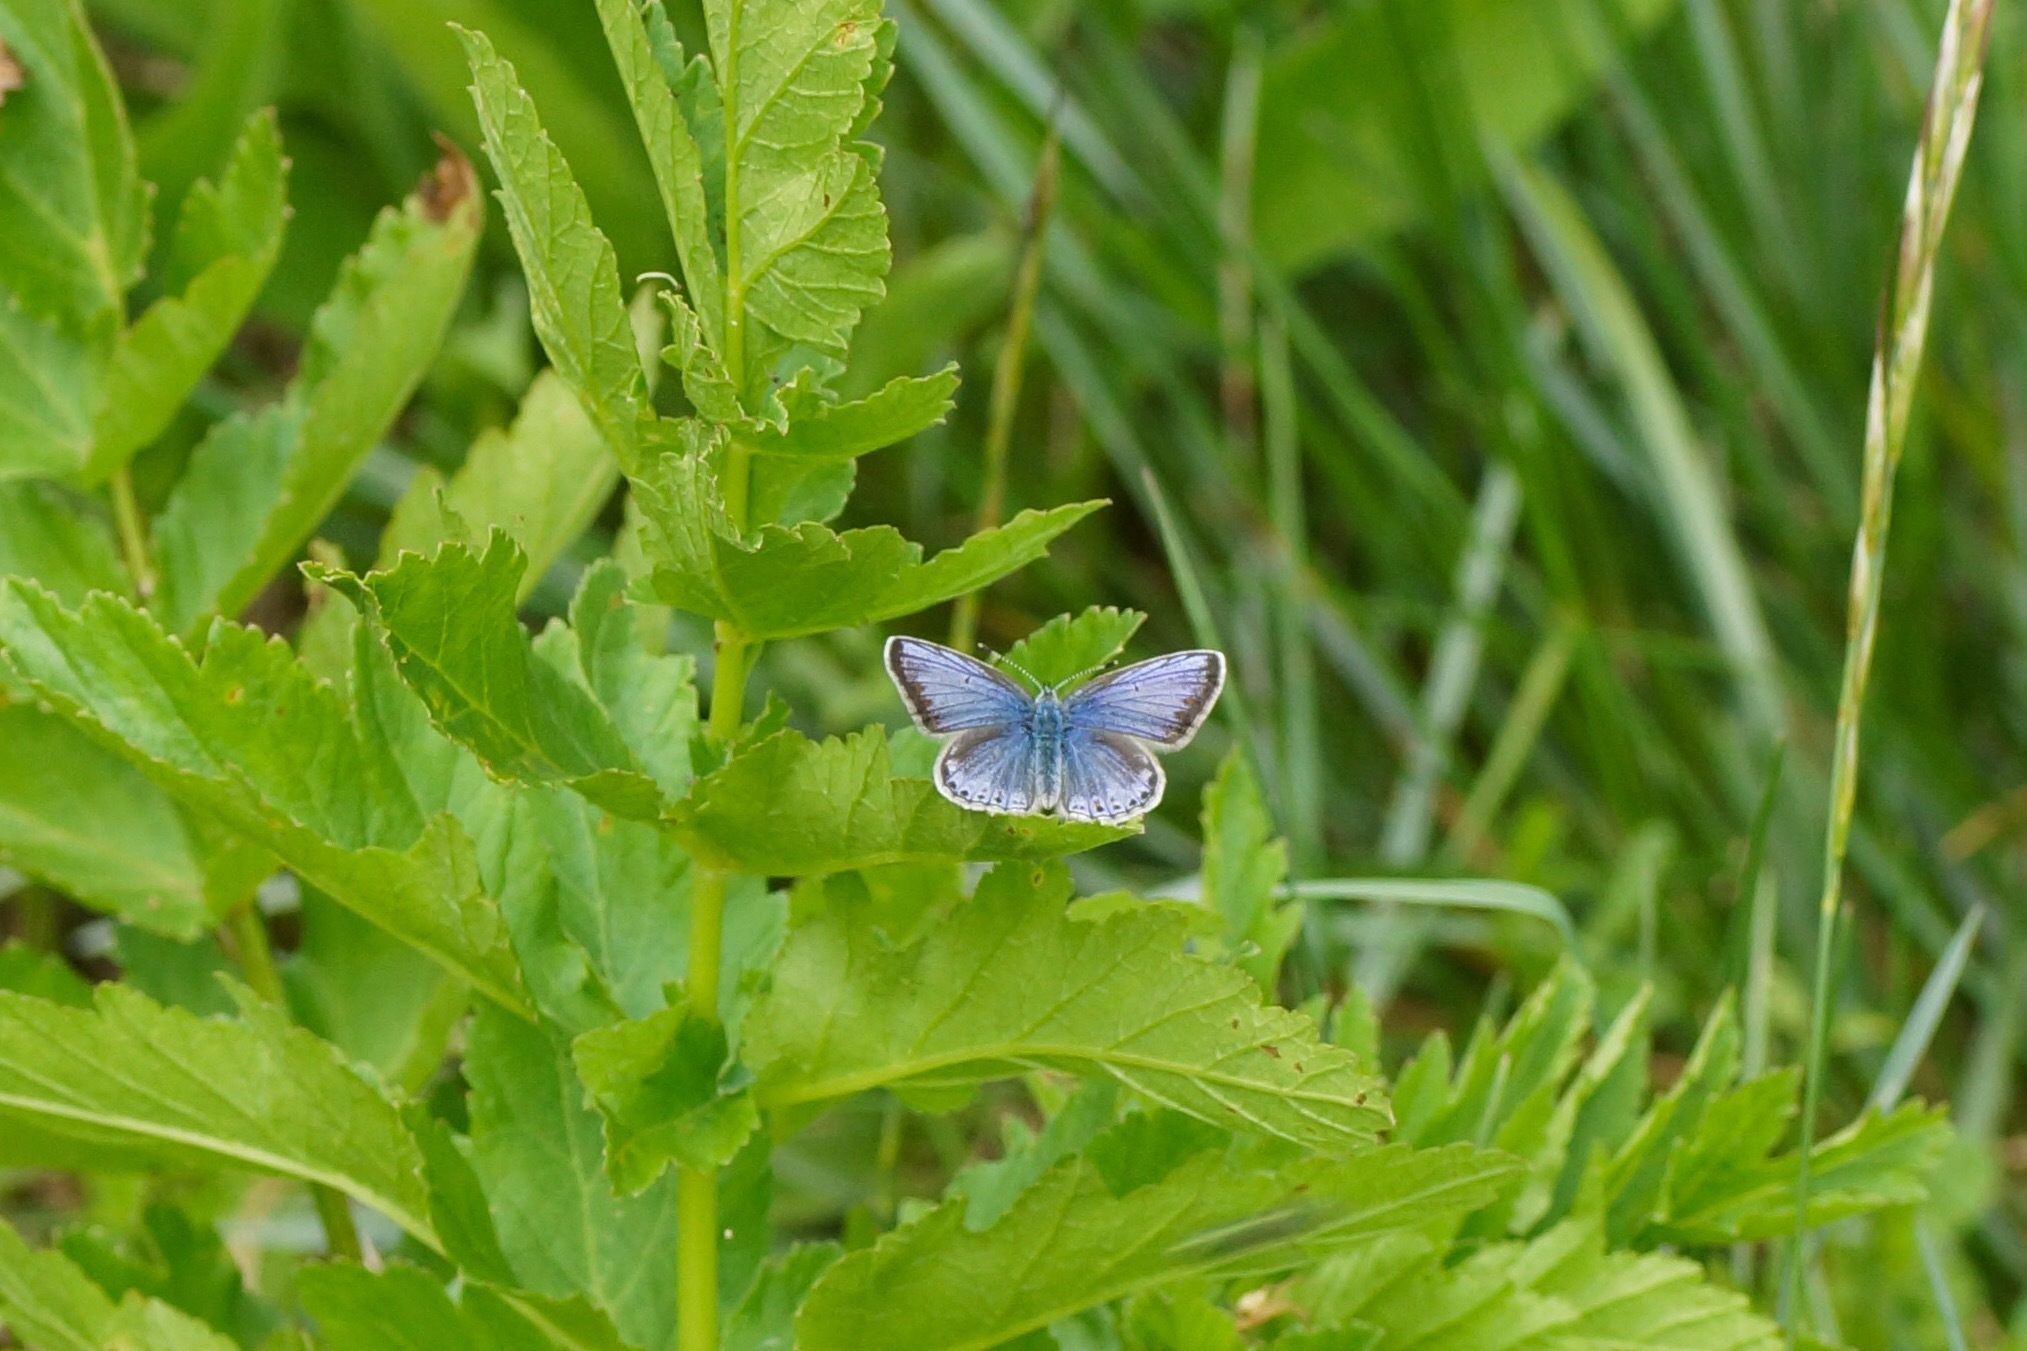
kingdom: Animalia
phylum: Arthropoda
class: Insecta
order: Lepidoptera
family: Lycaenidae
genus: Polyommatus
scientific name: Polyommatus icarus
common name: Common blue
